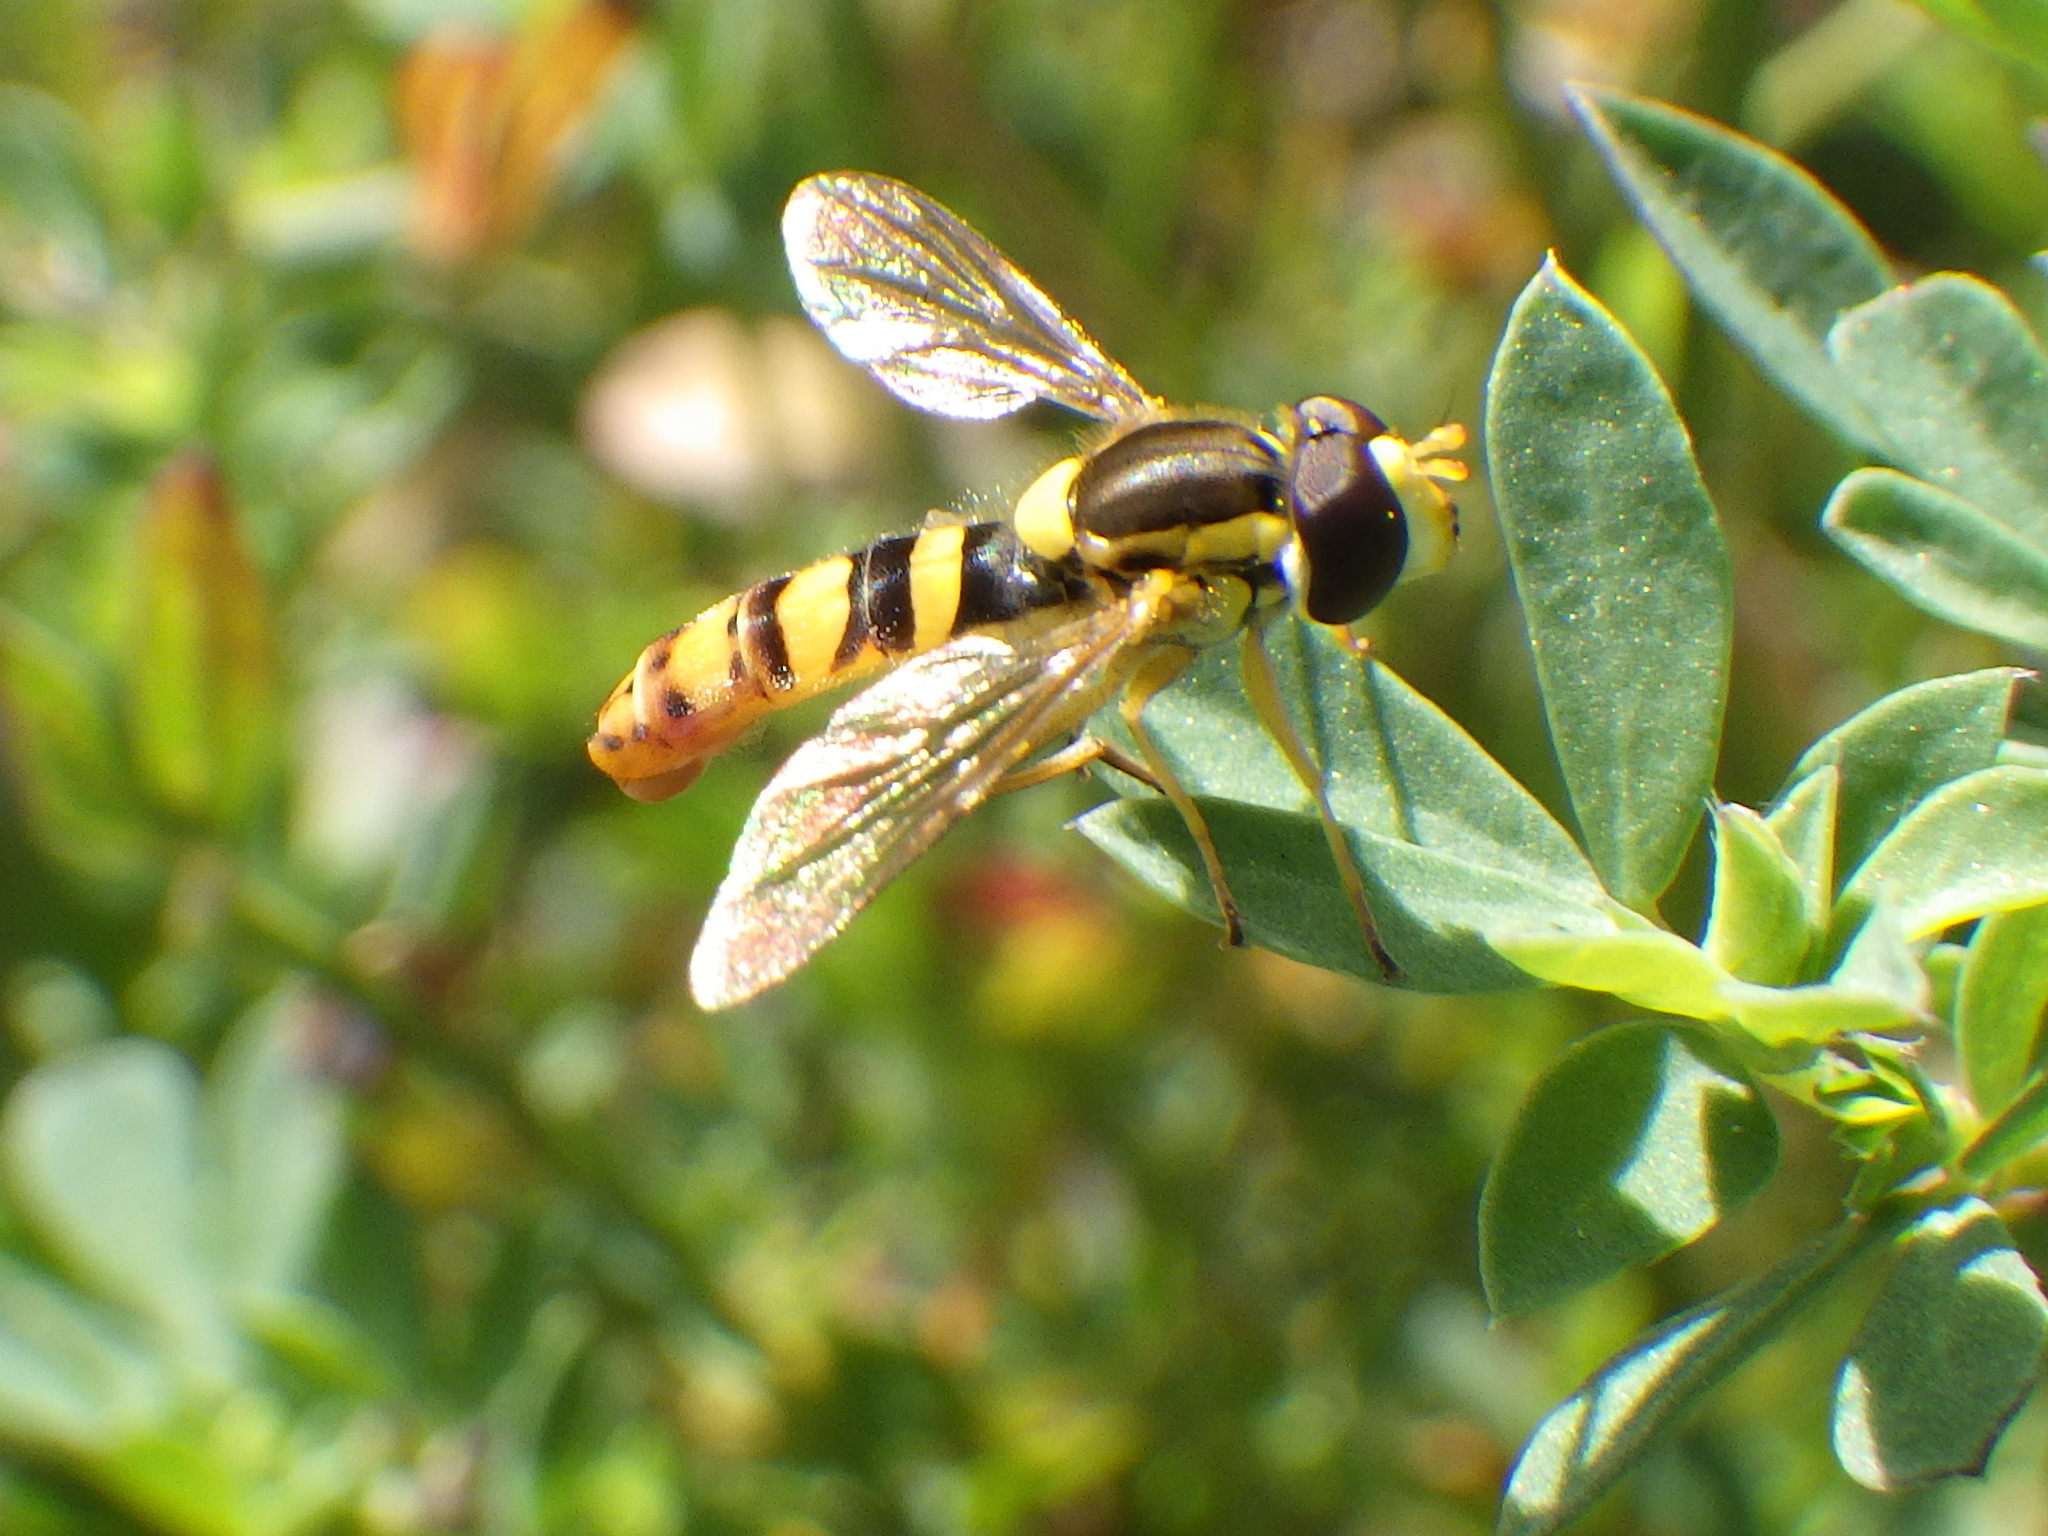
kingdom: Animalia
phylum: Arthropoda
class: Insecta
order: Diptera
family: Syrphidae
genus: Sphaerophoria
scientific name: Sphaerophoria philantha
